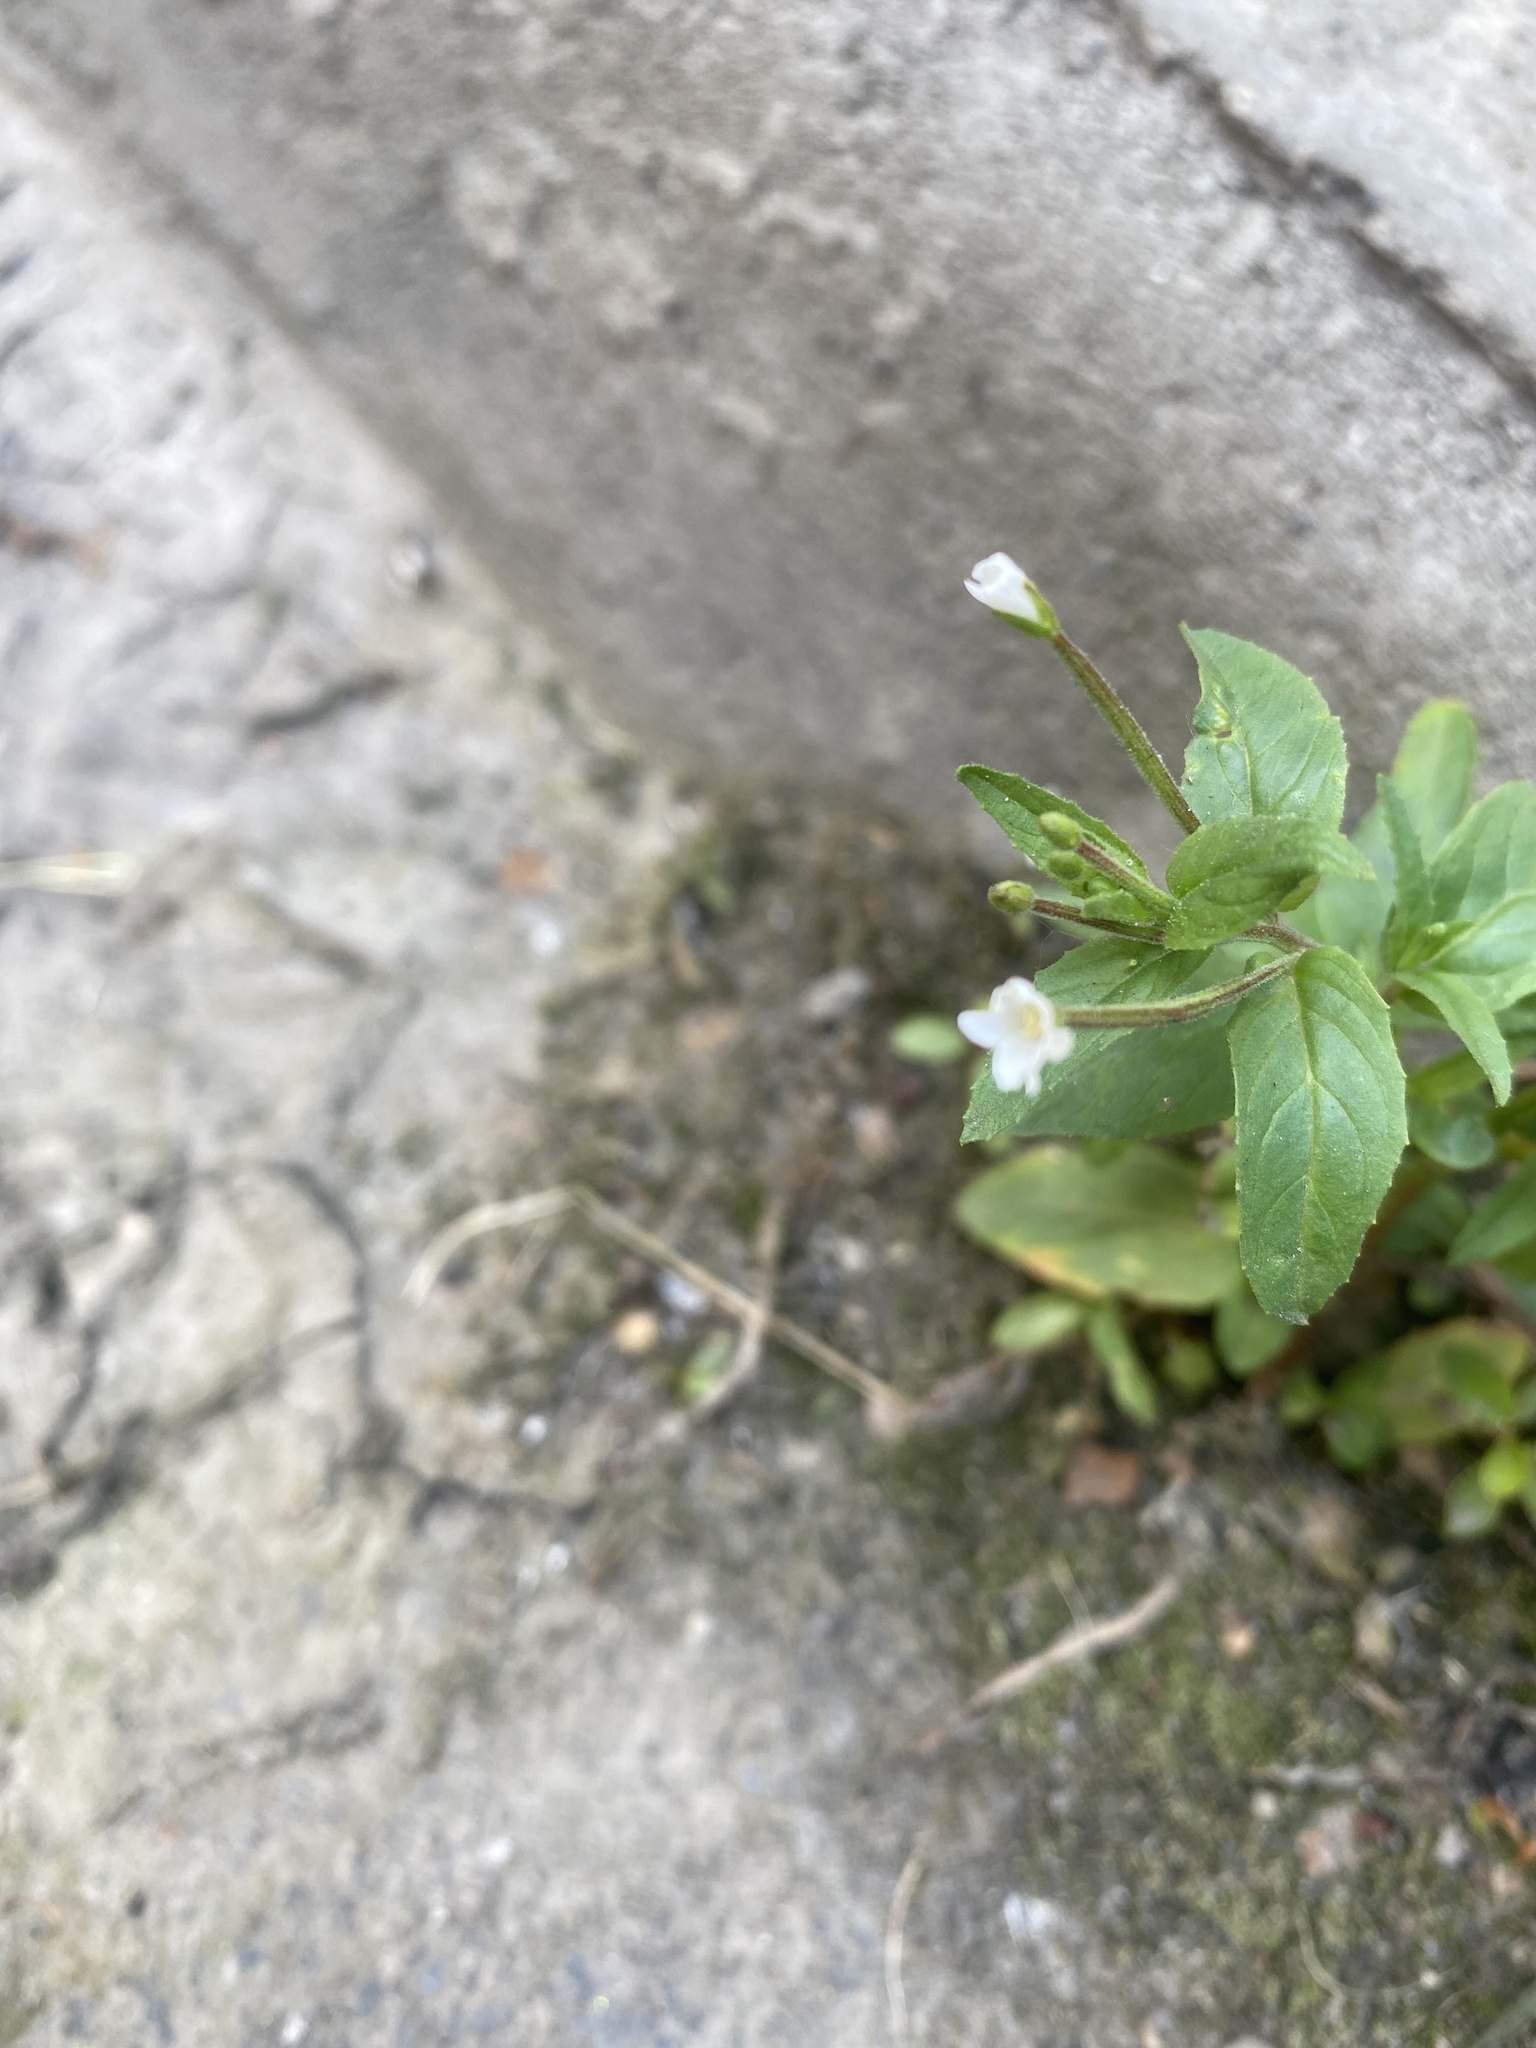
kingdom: Plantae
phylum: Tracheophyta
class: Magnoliopsida
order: Myrtales
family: Onagraceae
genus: Epilobium
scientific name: Epilobium pseudorubescens
